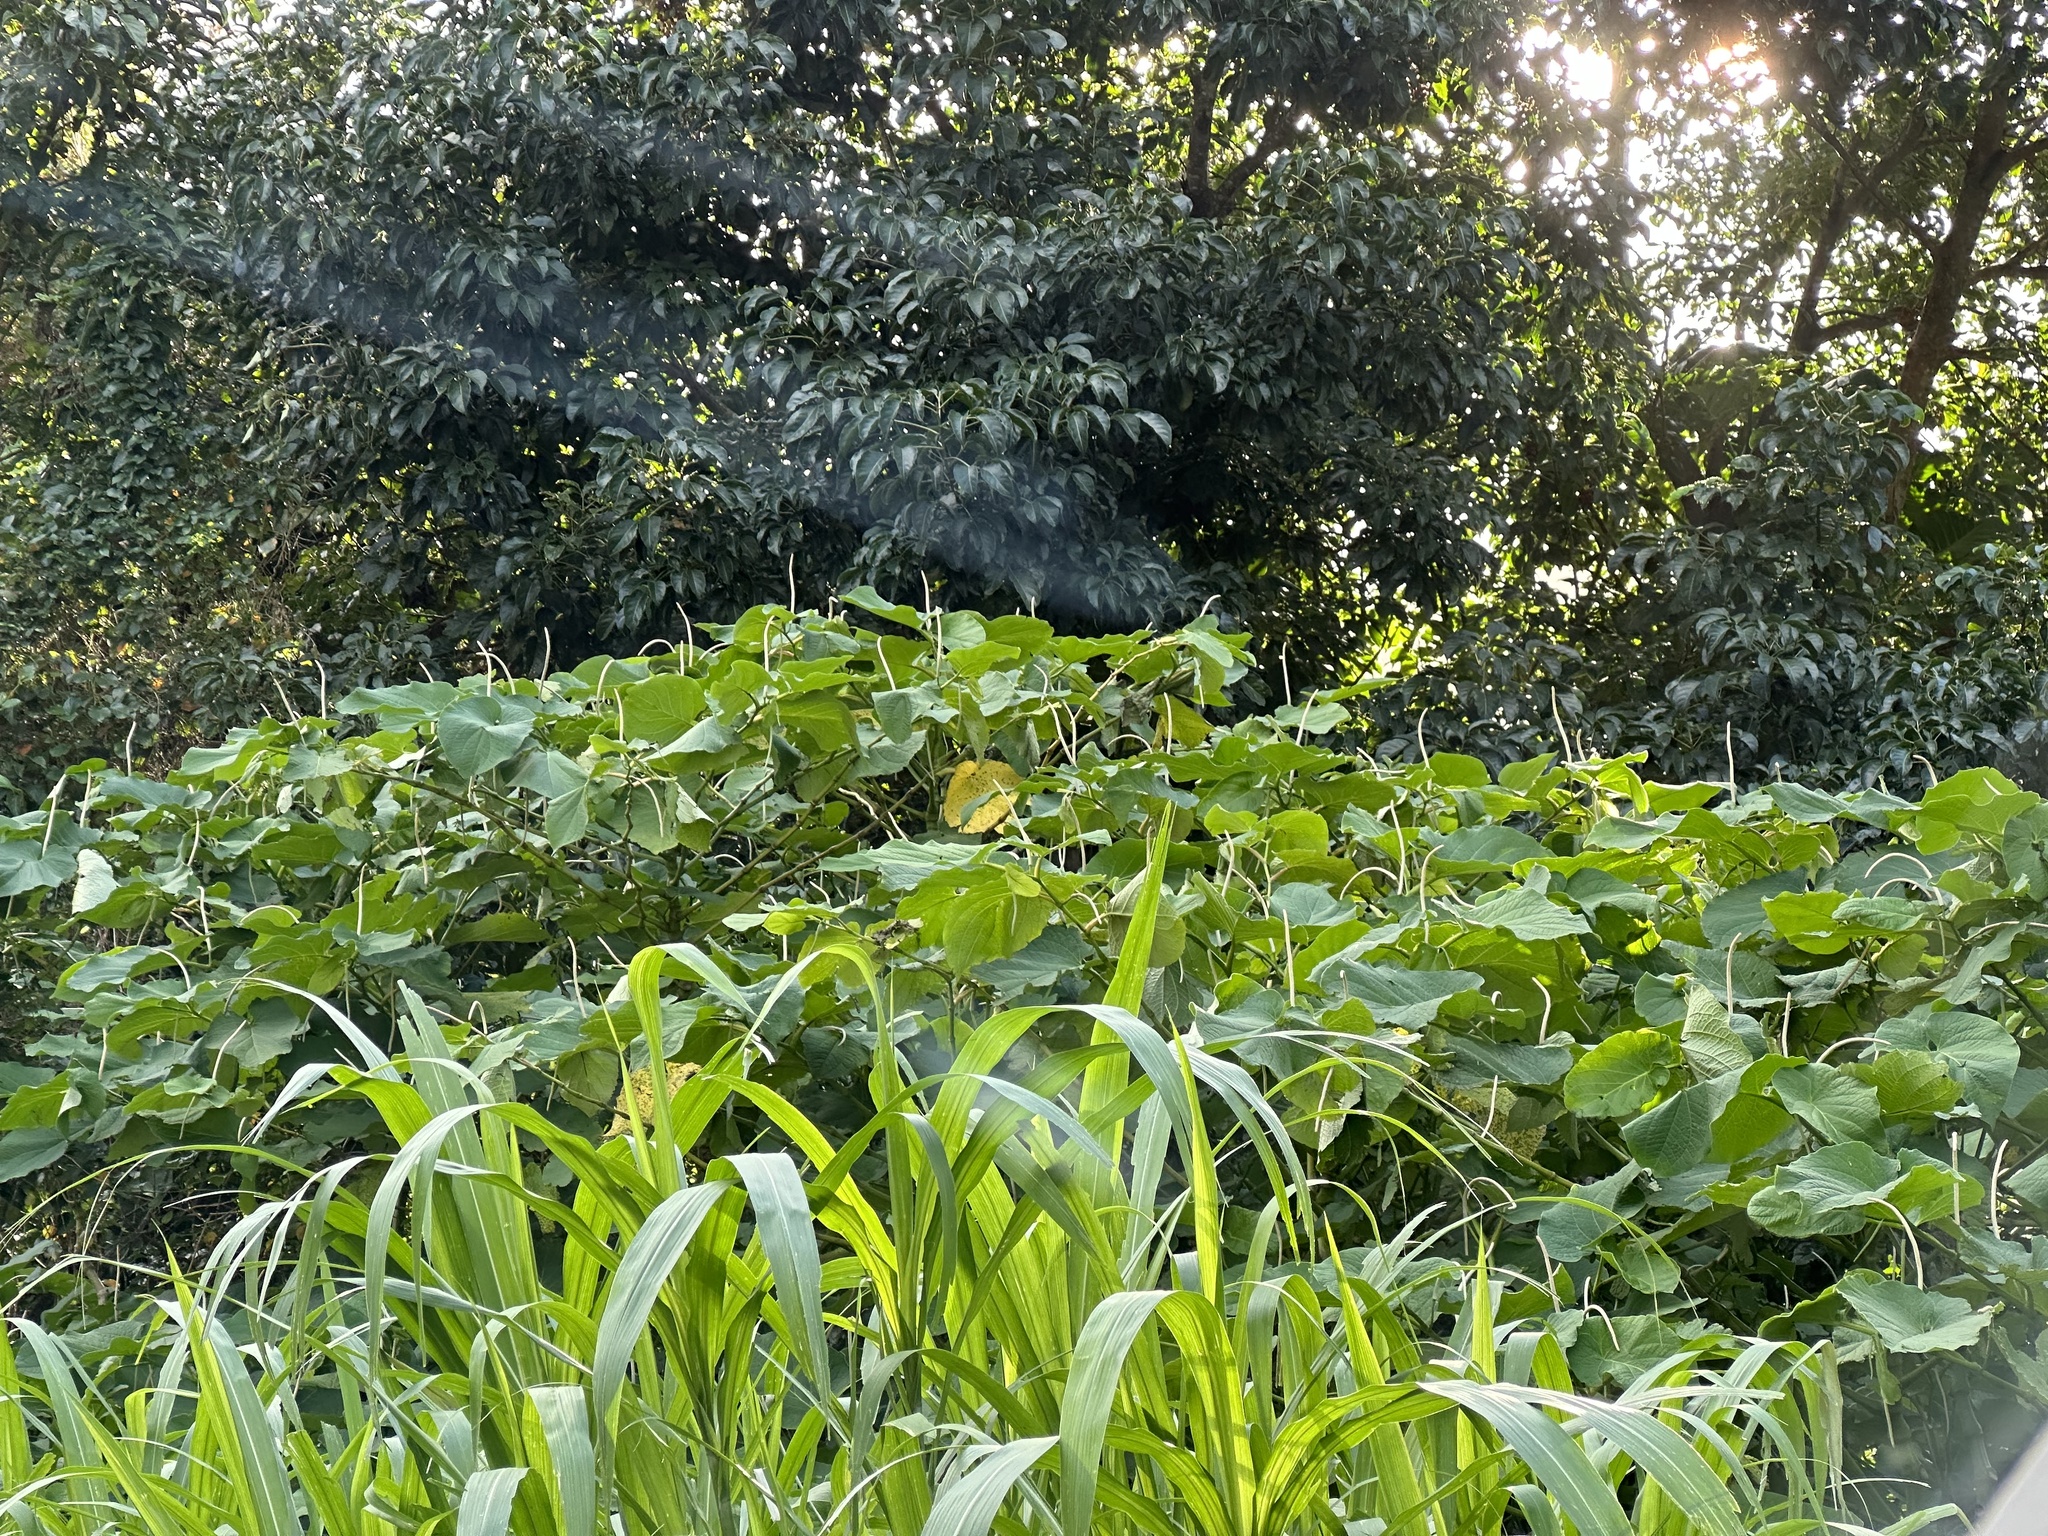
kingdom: Plantae
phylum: Tracheophyta
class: Magnoliopsida
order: Piperales
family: Piperaceae
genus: Piper
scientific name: Piper auritum
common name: Vera cruz pepper
